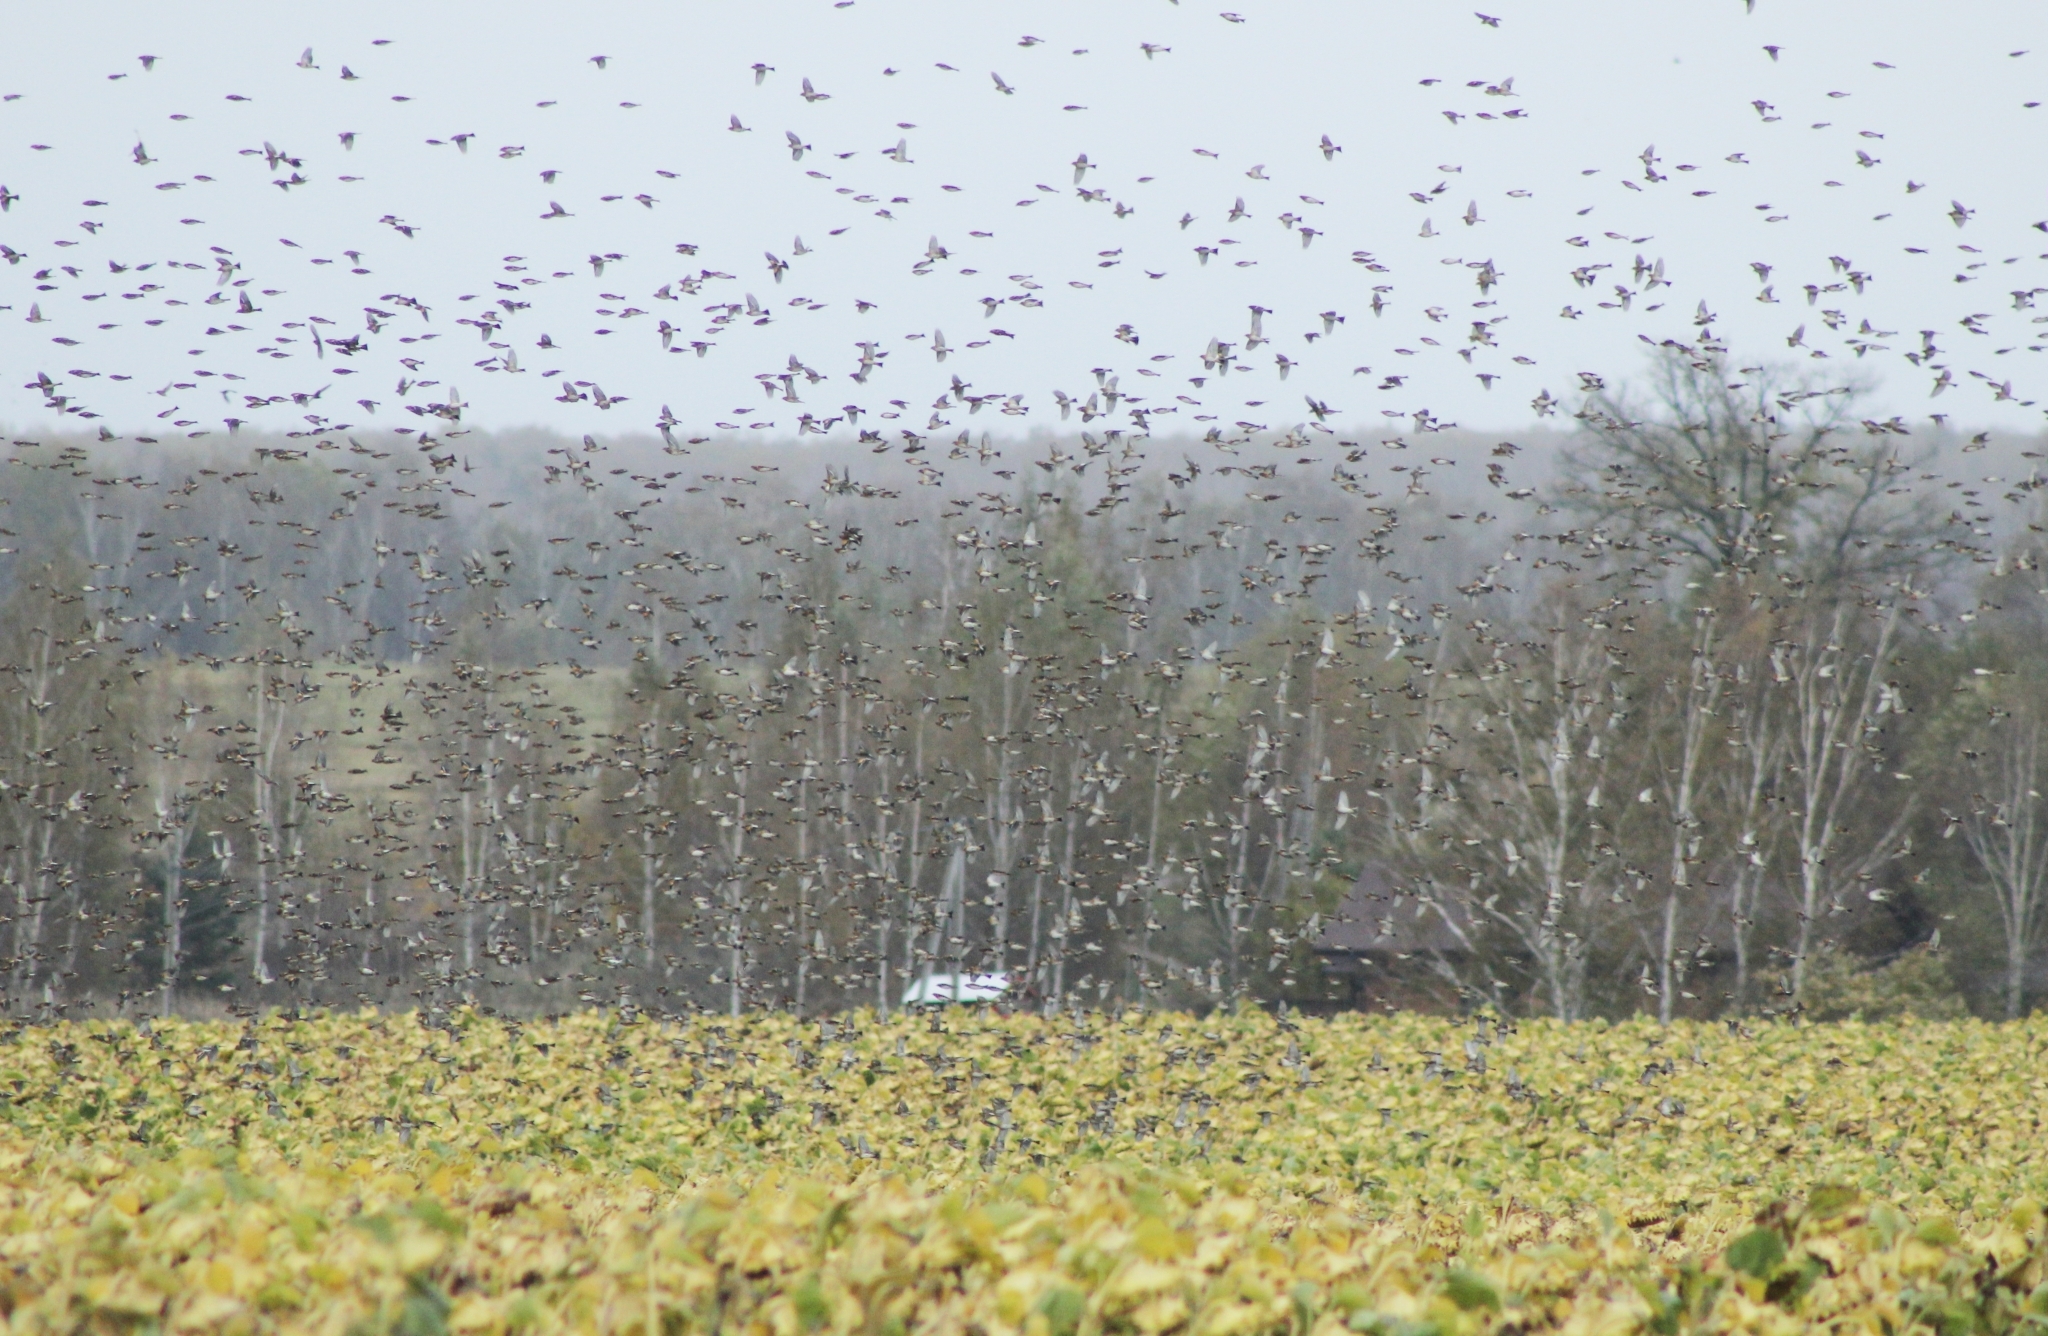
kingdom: Animalia
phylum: Chordata
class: Aves
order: Passeriformes
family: Fringillidae
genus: Fringilla
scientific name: Fringilla montifringilla
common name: Brambling
